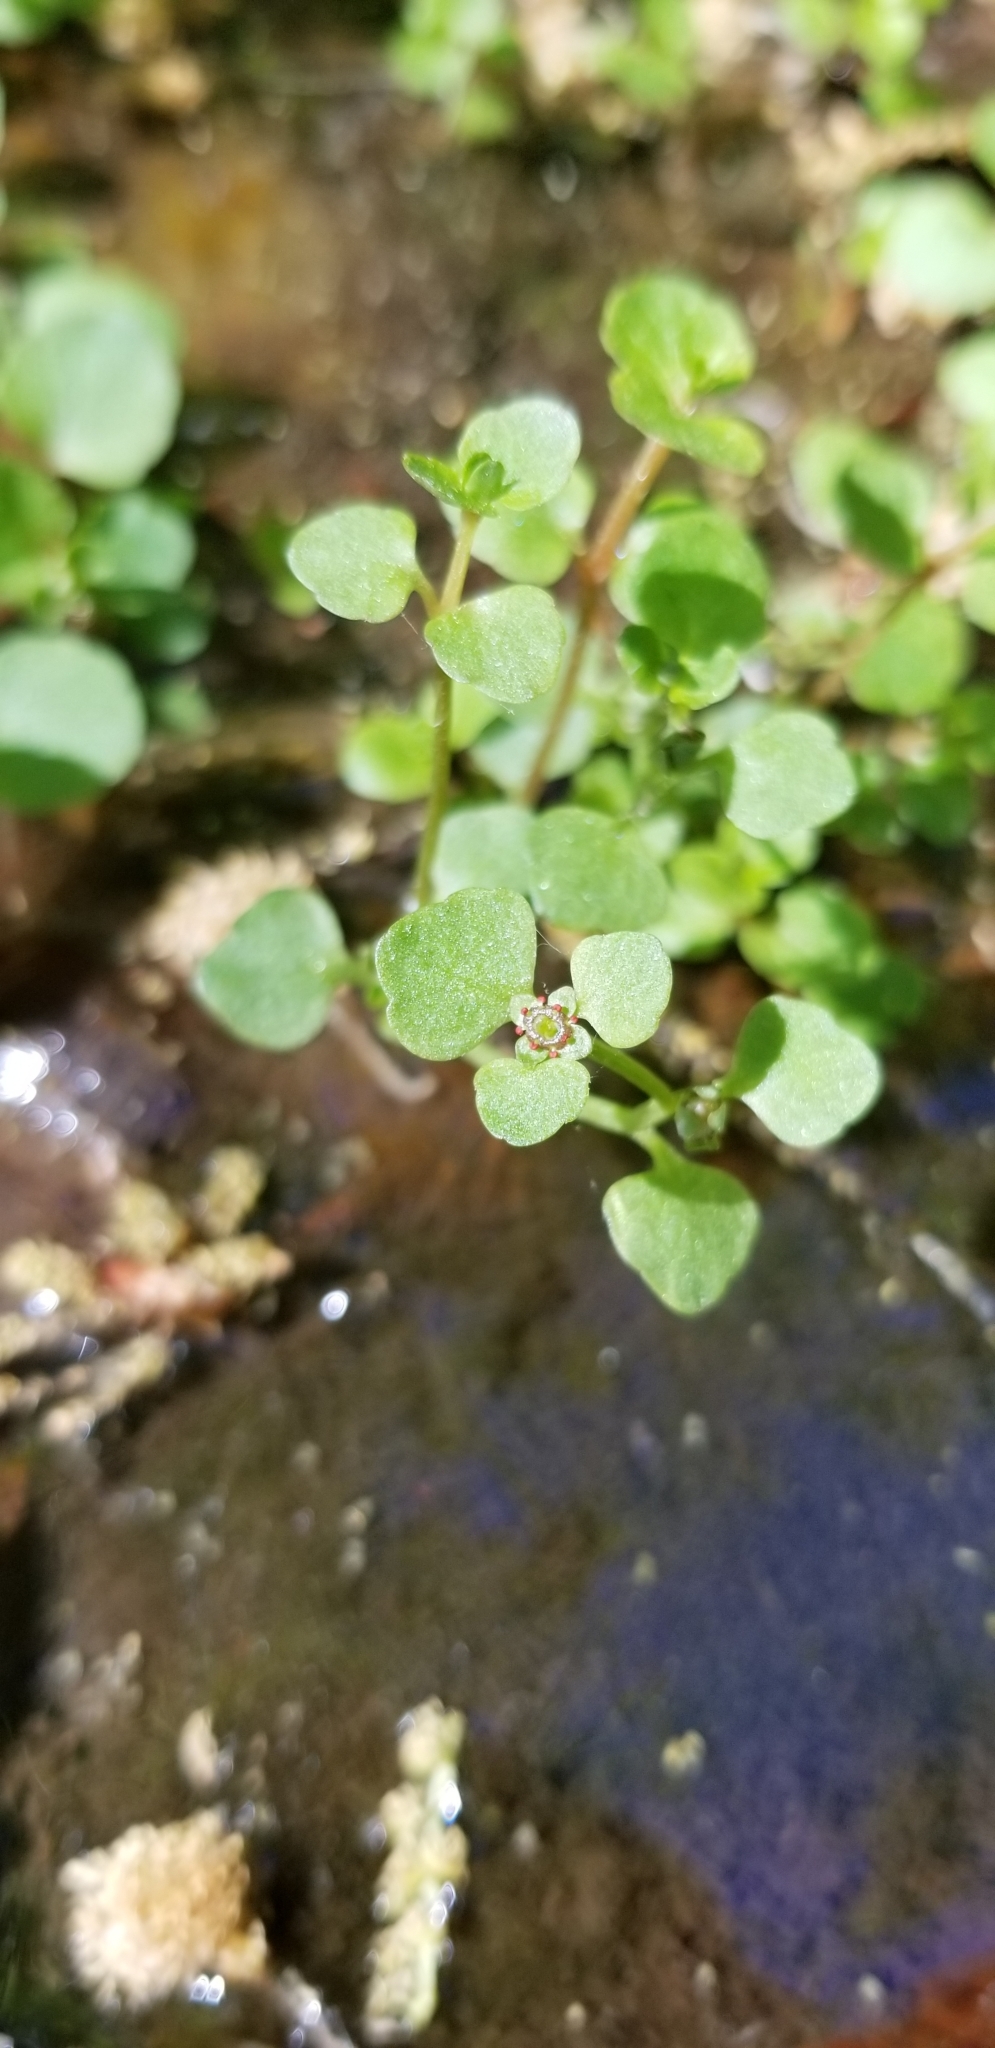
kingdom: Plantae
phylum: Tracheophyta
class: Magnoliopsida
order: Saxifragales
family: Saxifragaceae
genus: Chrysosplenium
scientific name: Chrysosplenium americanum
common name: American golden-saxifrage
